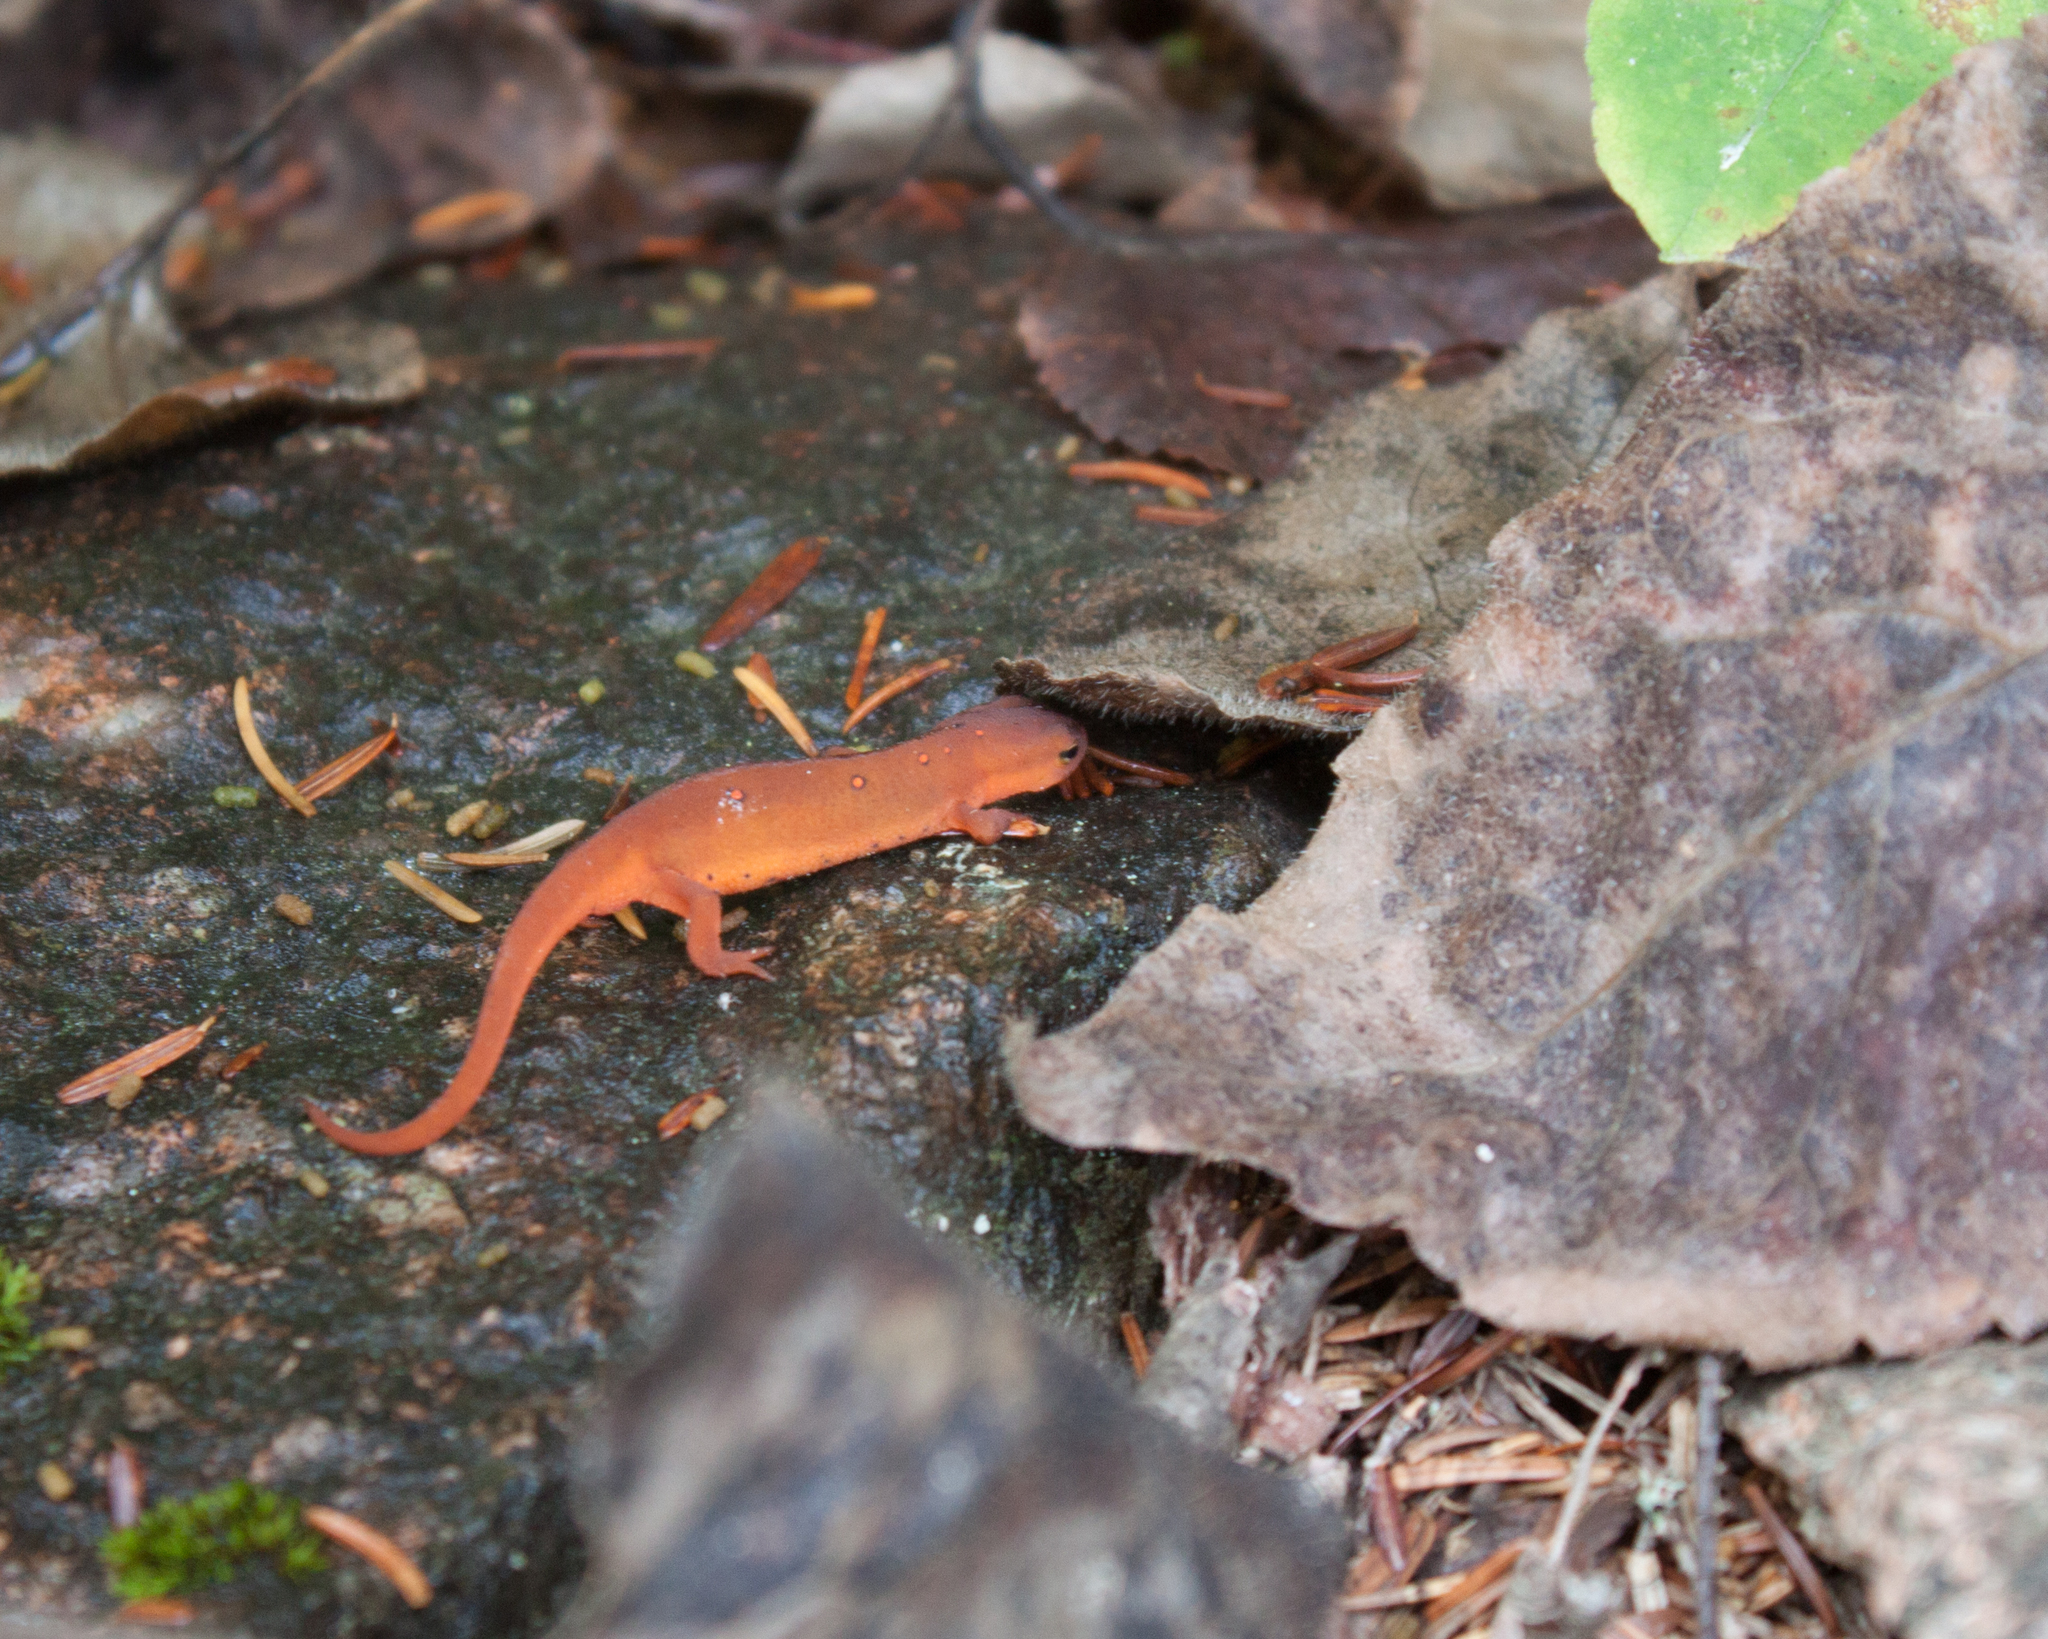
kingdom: Animalia
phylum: Chordata
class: Amphibia
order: Caudata
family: Salamandridae
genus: Notophthalmus
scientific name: Notophthalmus viridescens
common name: Eastern newt
